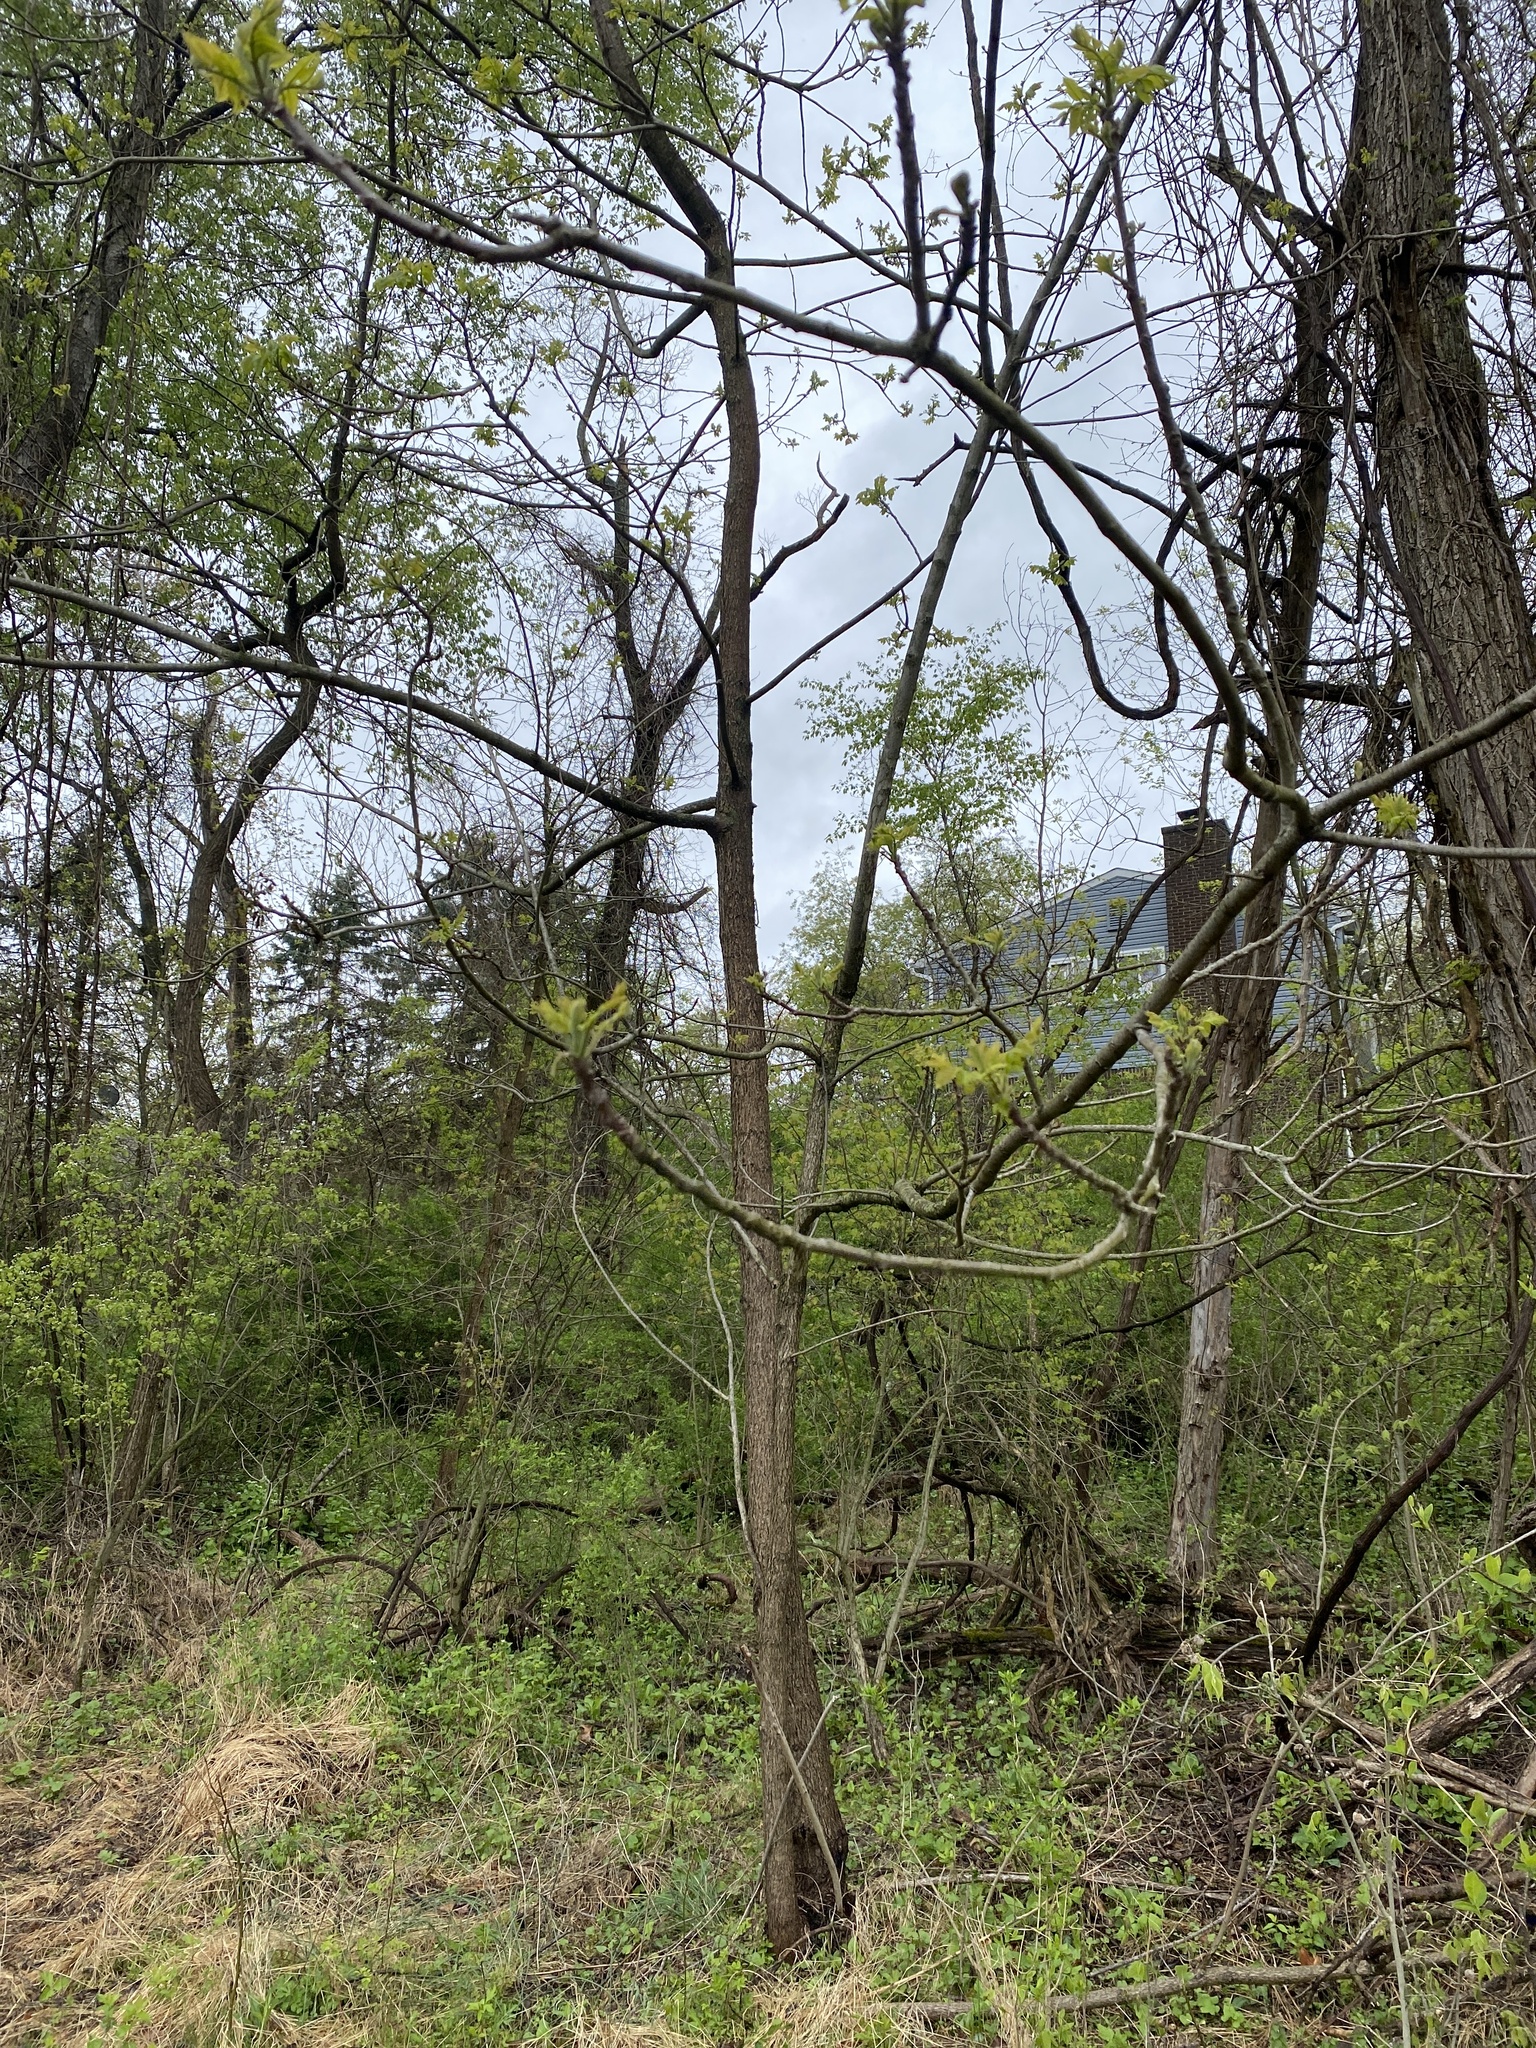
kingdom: Plantae
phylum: Tracheophyta
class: Magnoliopsida
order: Fagales
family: Juglandaceae
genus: Juglans
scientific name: Juglans nigra
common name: Black walnut
